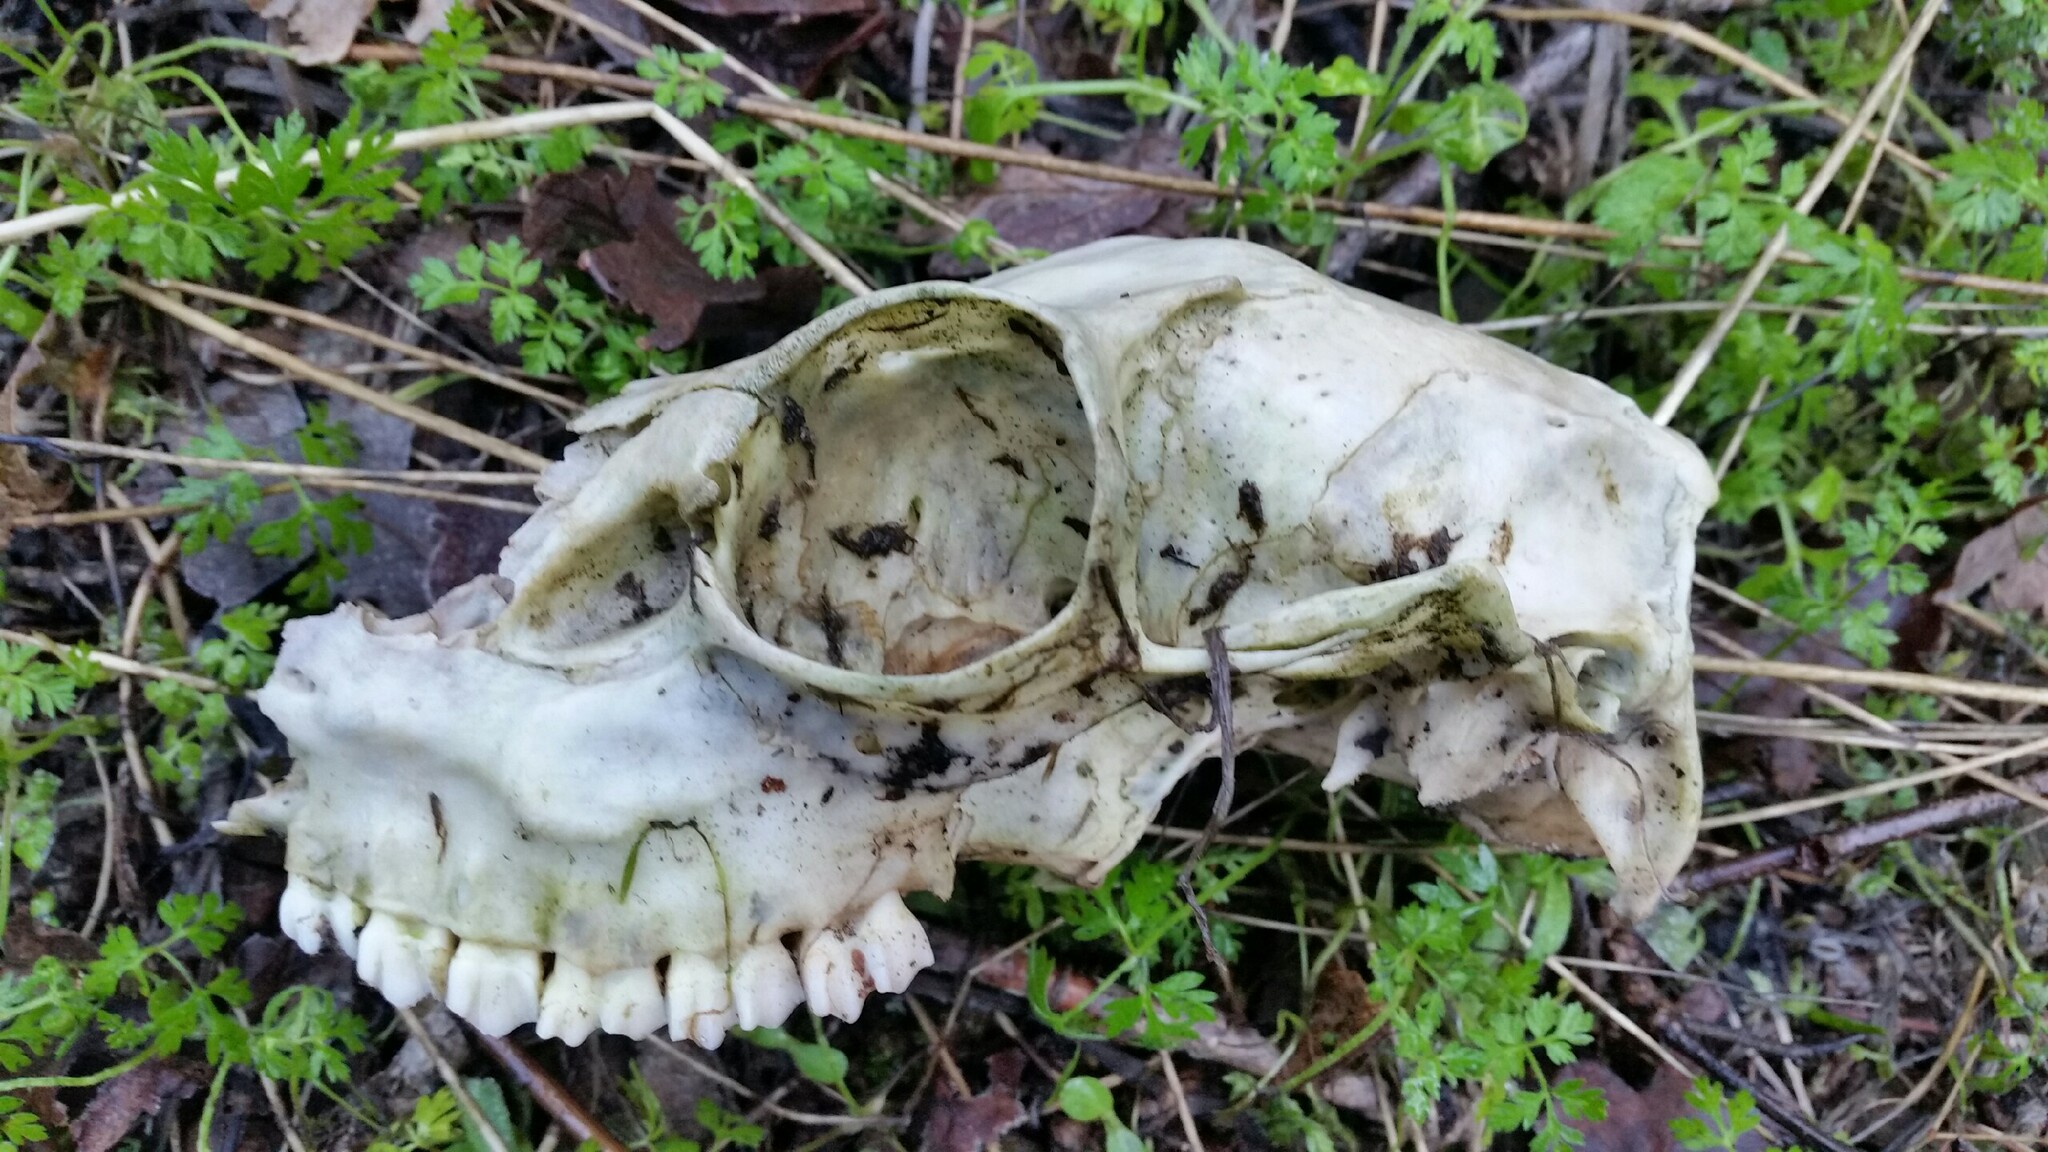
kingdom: Animalia
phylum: Chordata
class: Mammalia
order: Artiodactyla
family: Cervidae
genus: Odocoileus
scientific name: Odocoileus hemionus
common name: Mule deer
